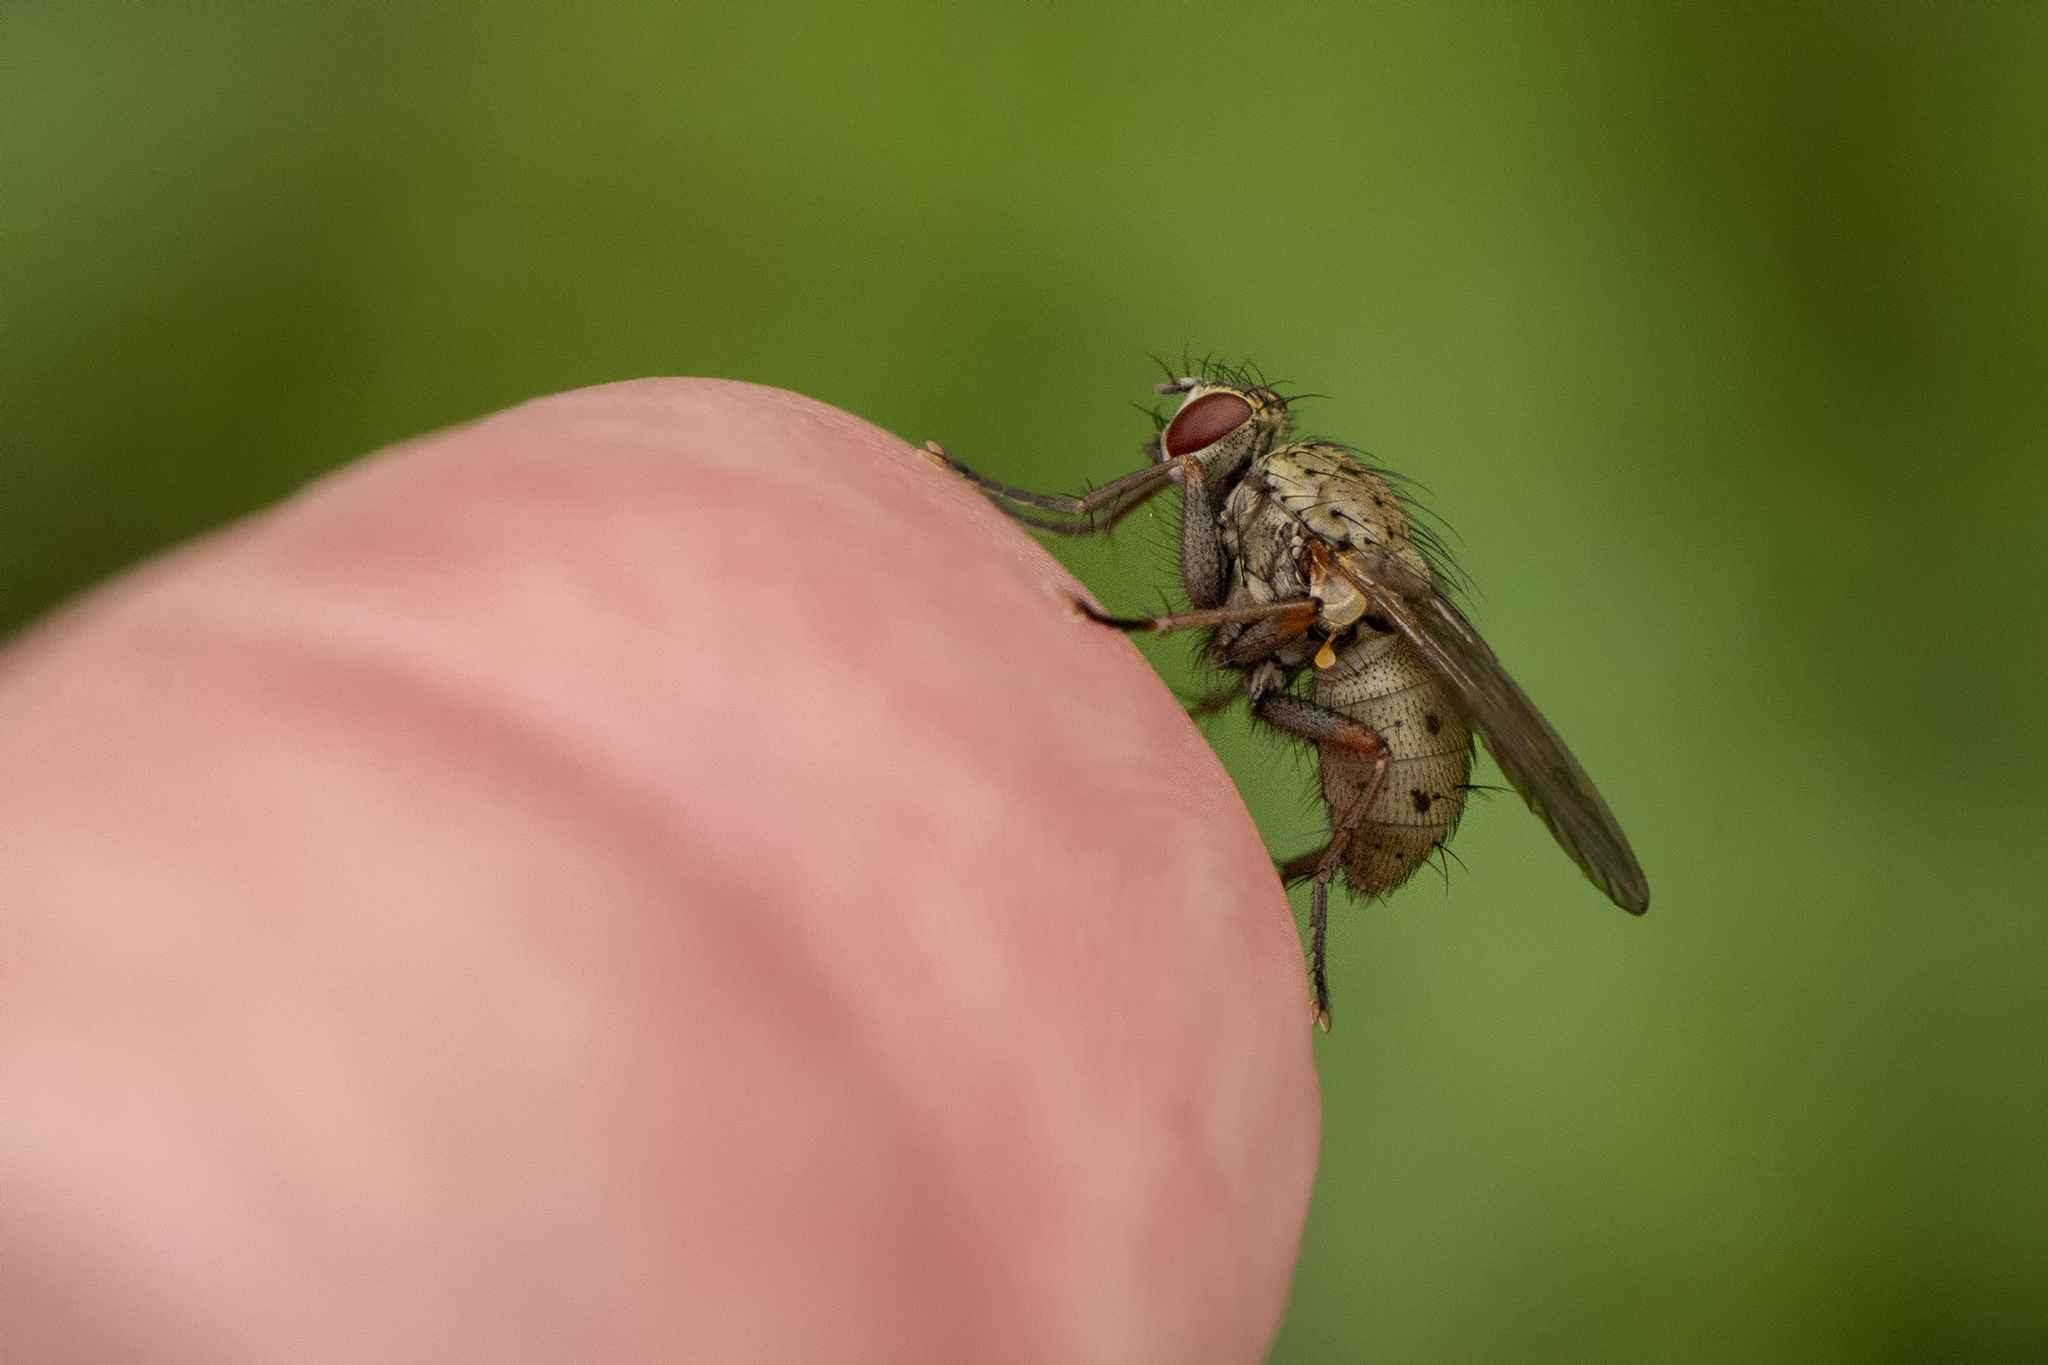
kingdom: Animalia
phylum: Arthropoda
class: Insecta
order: Diptera
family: Muscidae
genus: Coenosia
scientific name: Coenosia tigrina
